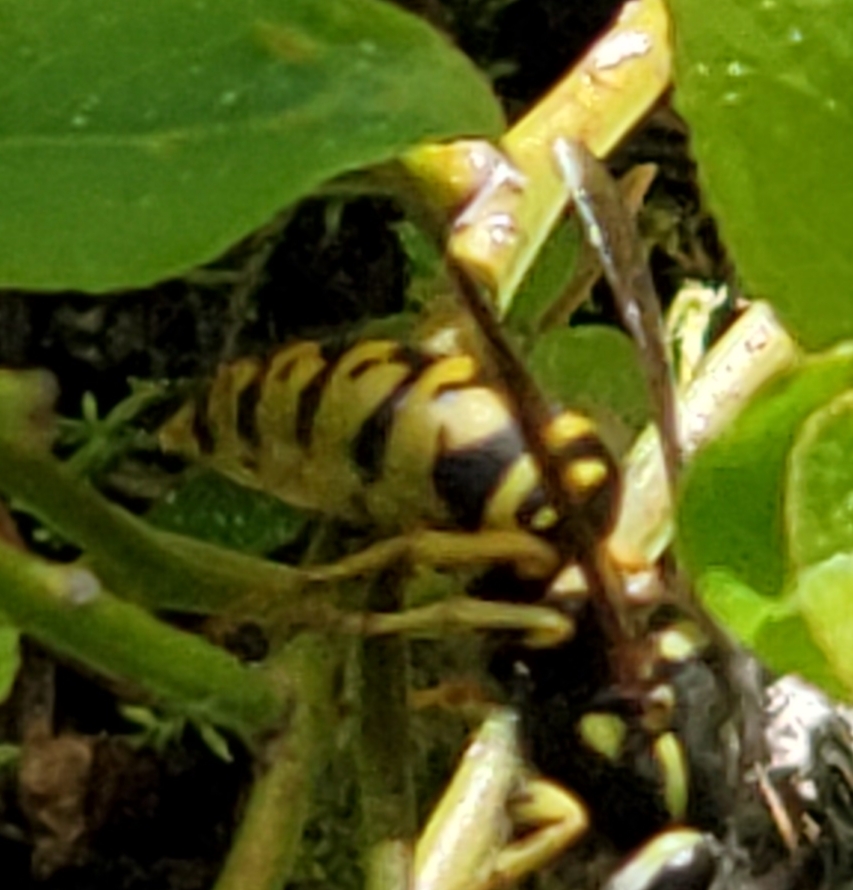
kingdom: Animalia
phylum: Arthropoda
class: Insecta
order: Hymenoptera
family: Vespidae
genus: Vespula
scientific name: Vespula
